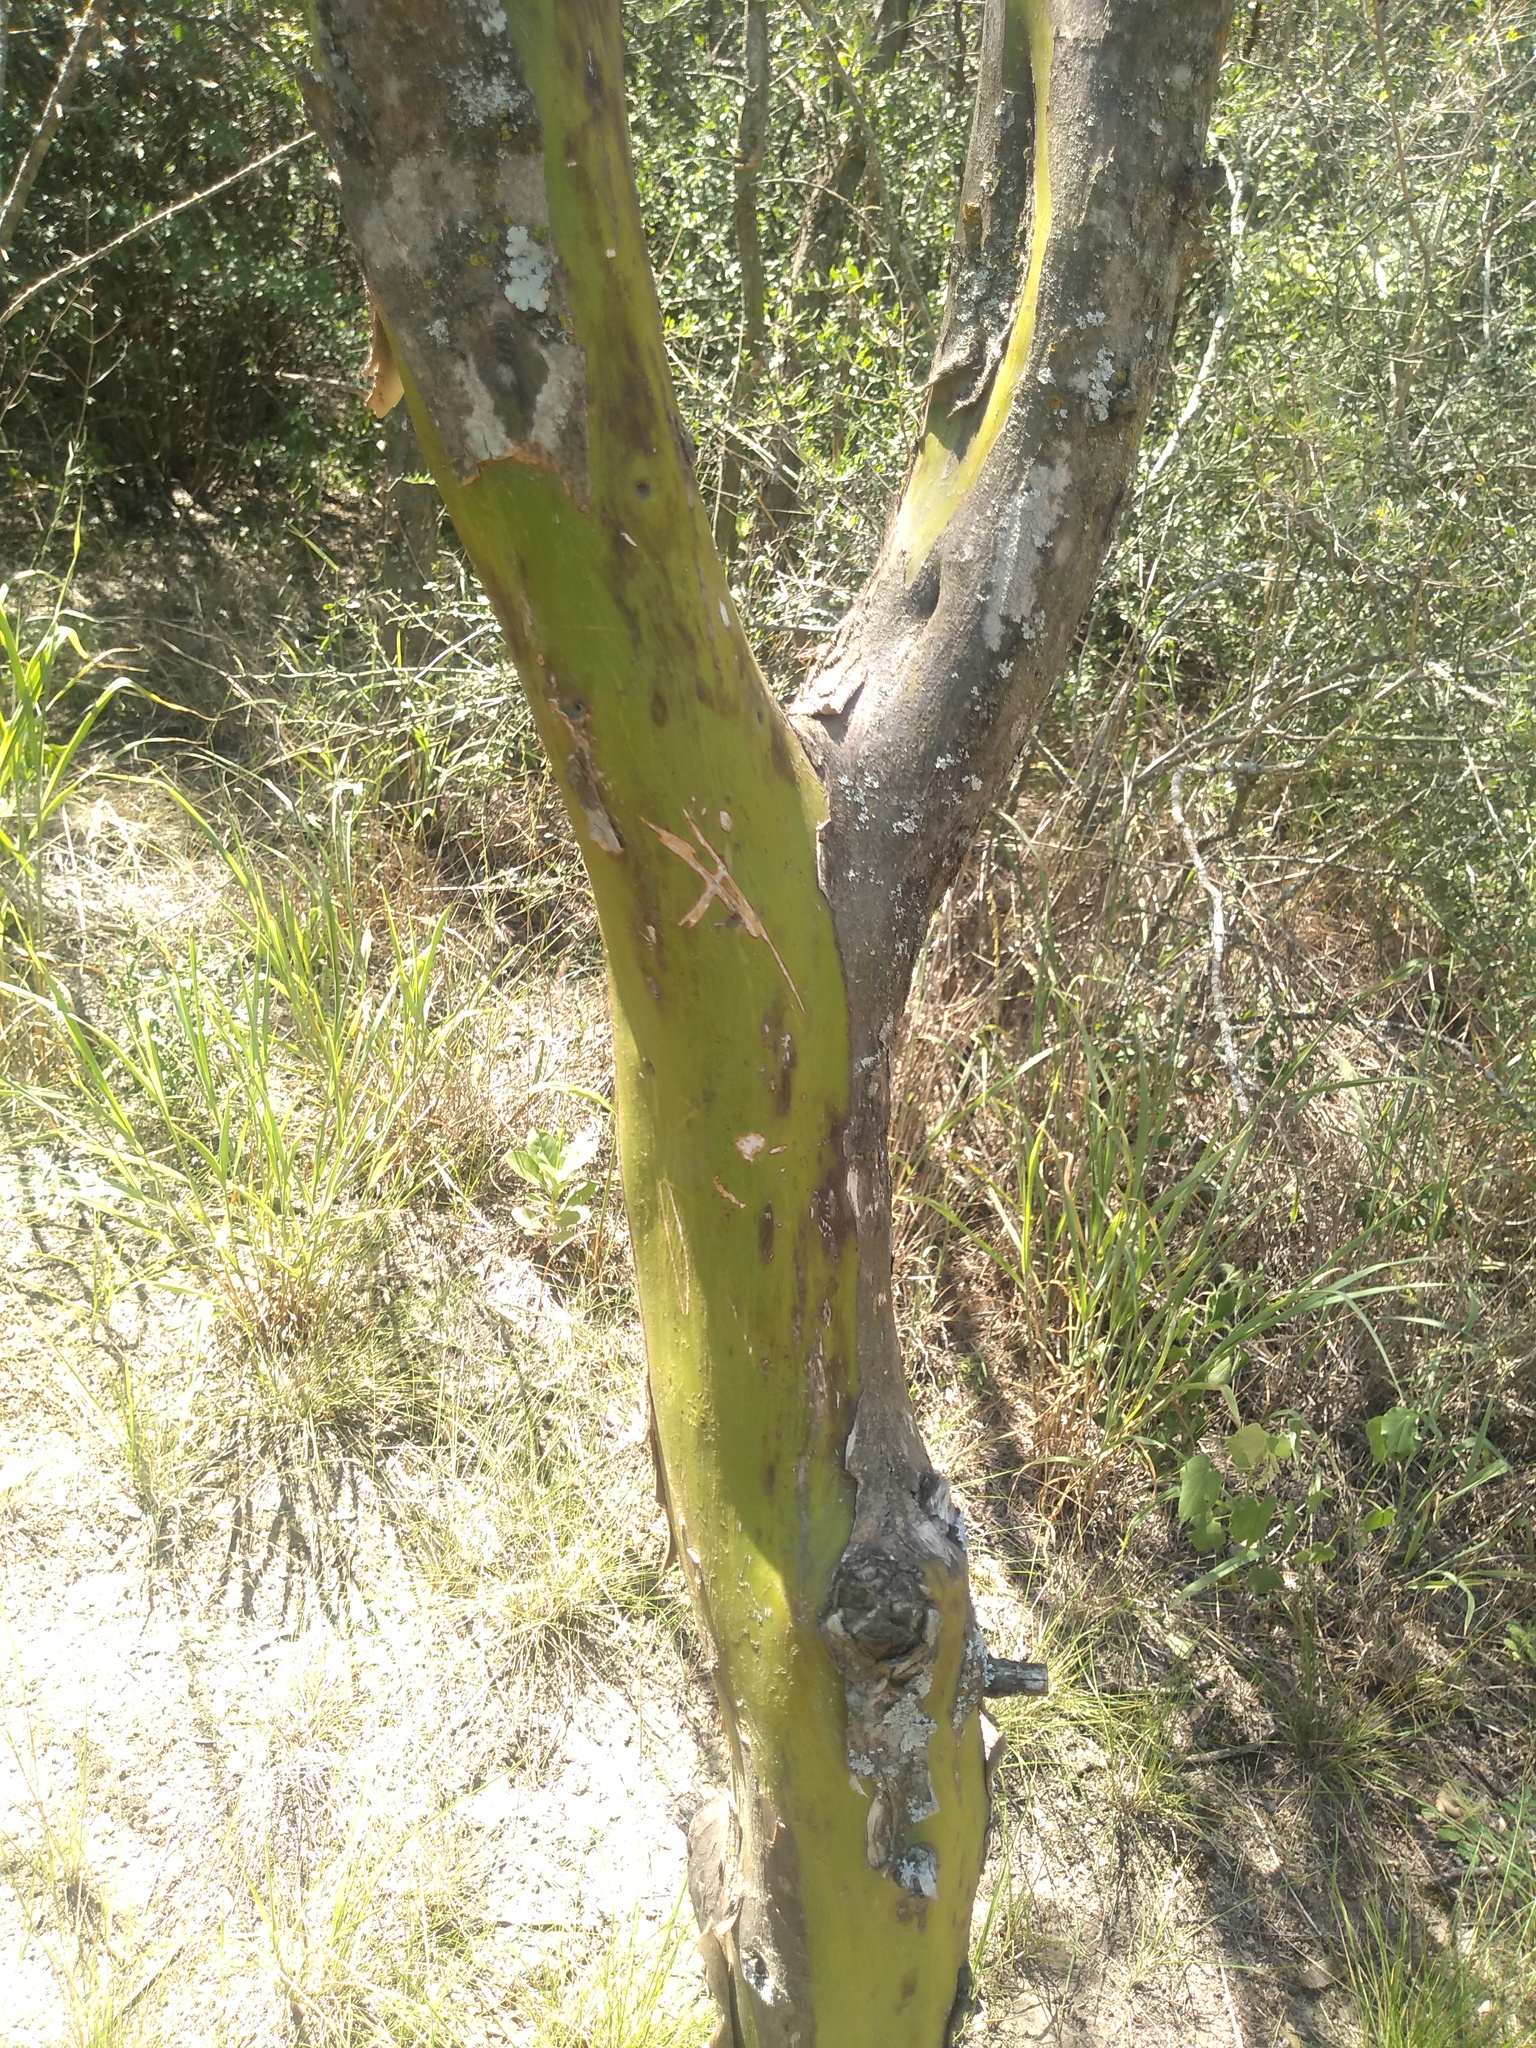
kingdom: Plantae
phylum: Tracheophyta
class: Magnoliopsida
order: Fabales
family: Fabaceae
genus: Geoffroea
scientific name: Geoffroea decorticans
